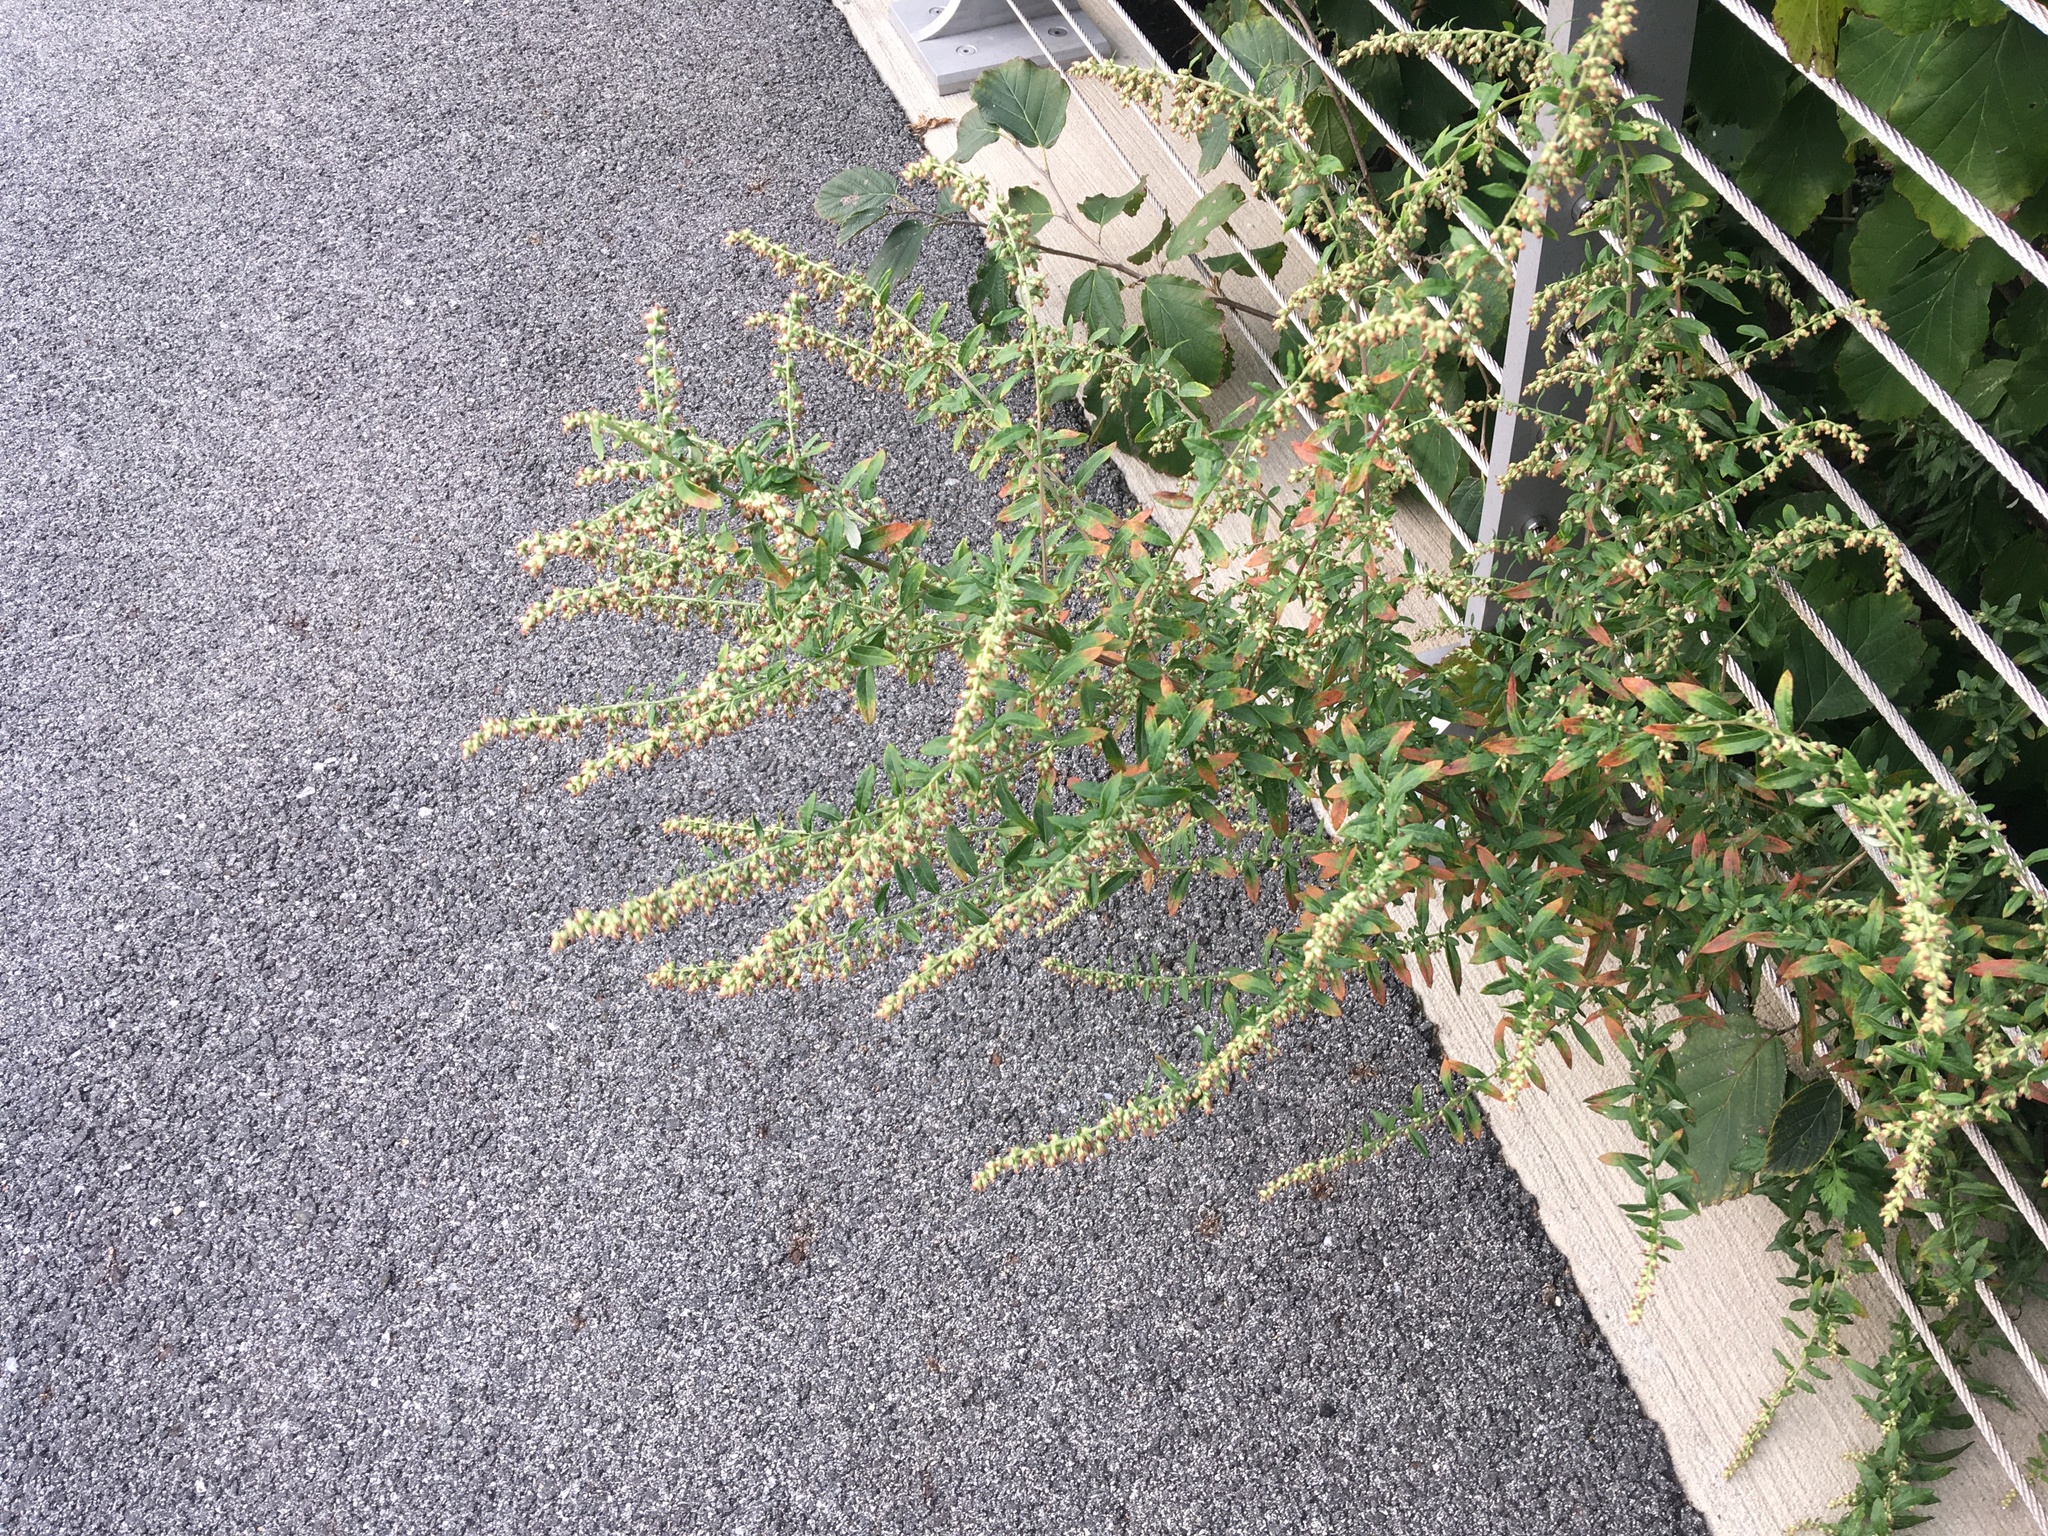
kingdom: Plantae
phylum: Tracheophyta
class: Magnoliopsida
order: Asterales
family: Asteraceae
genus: Artemisia
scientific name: Artemisia vulgaris
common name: Mugwort
